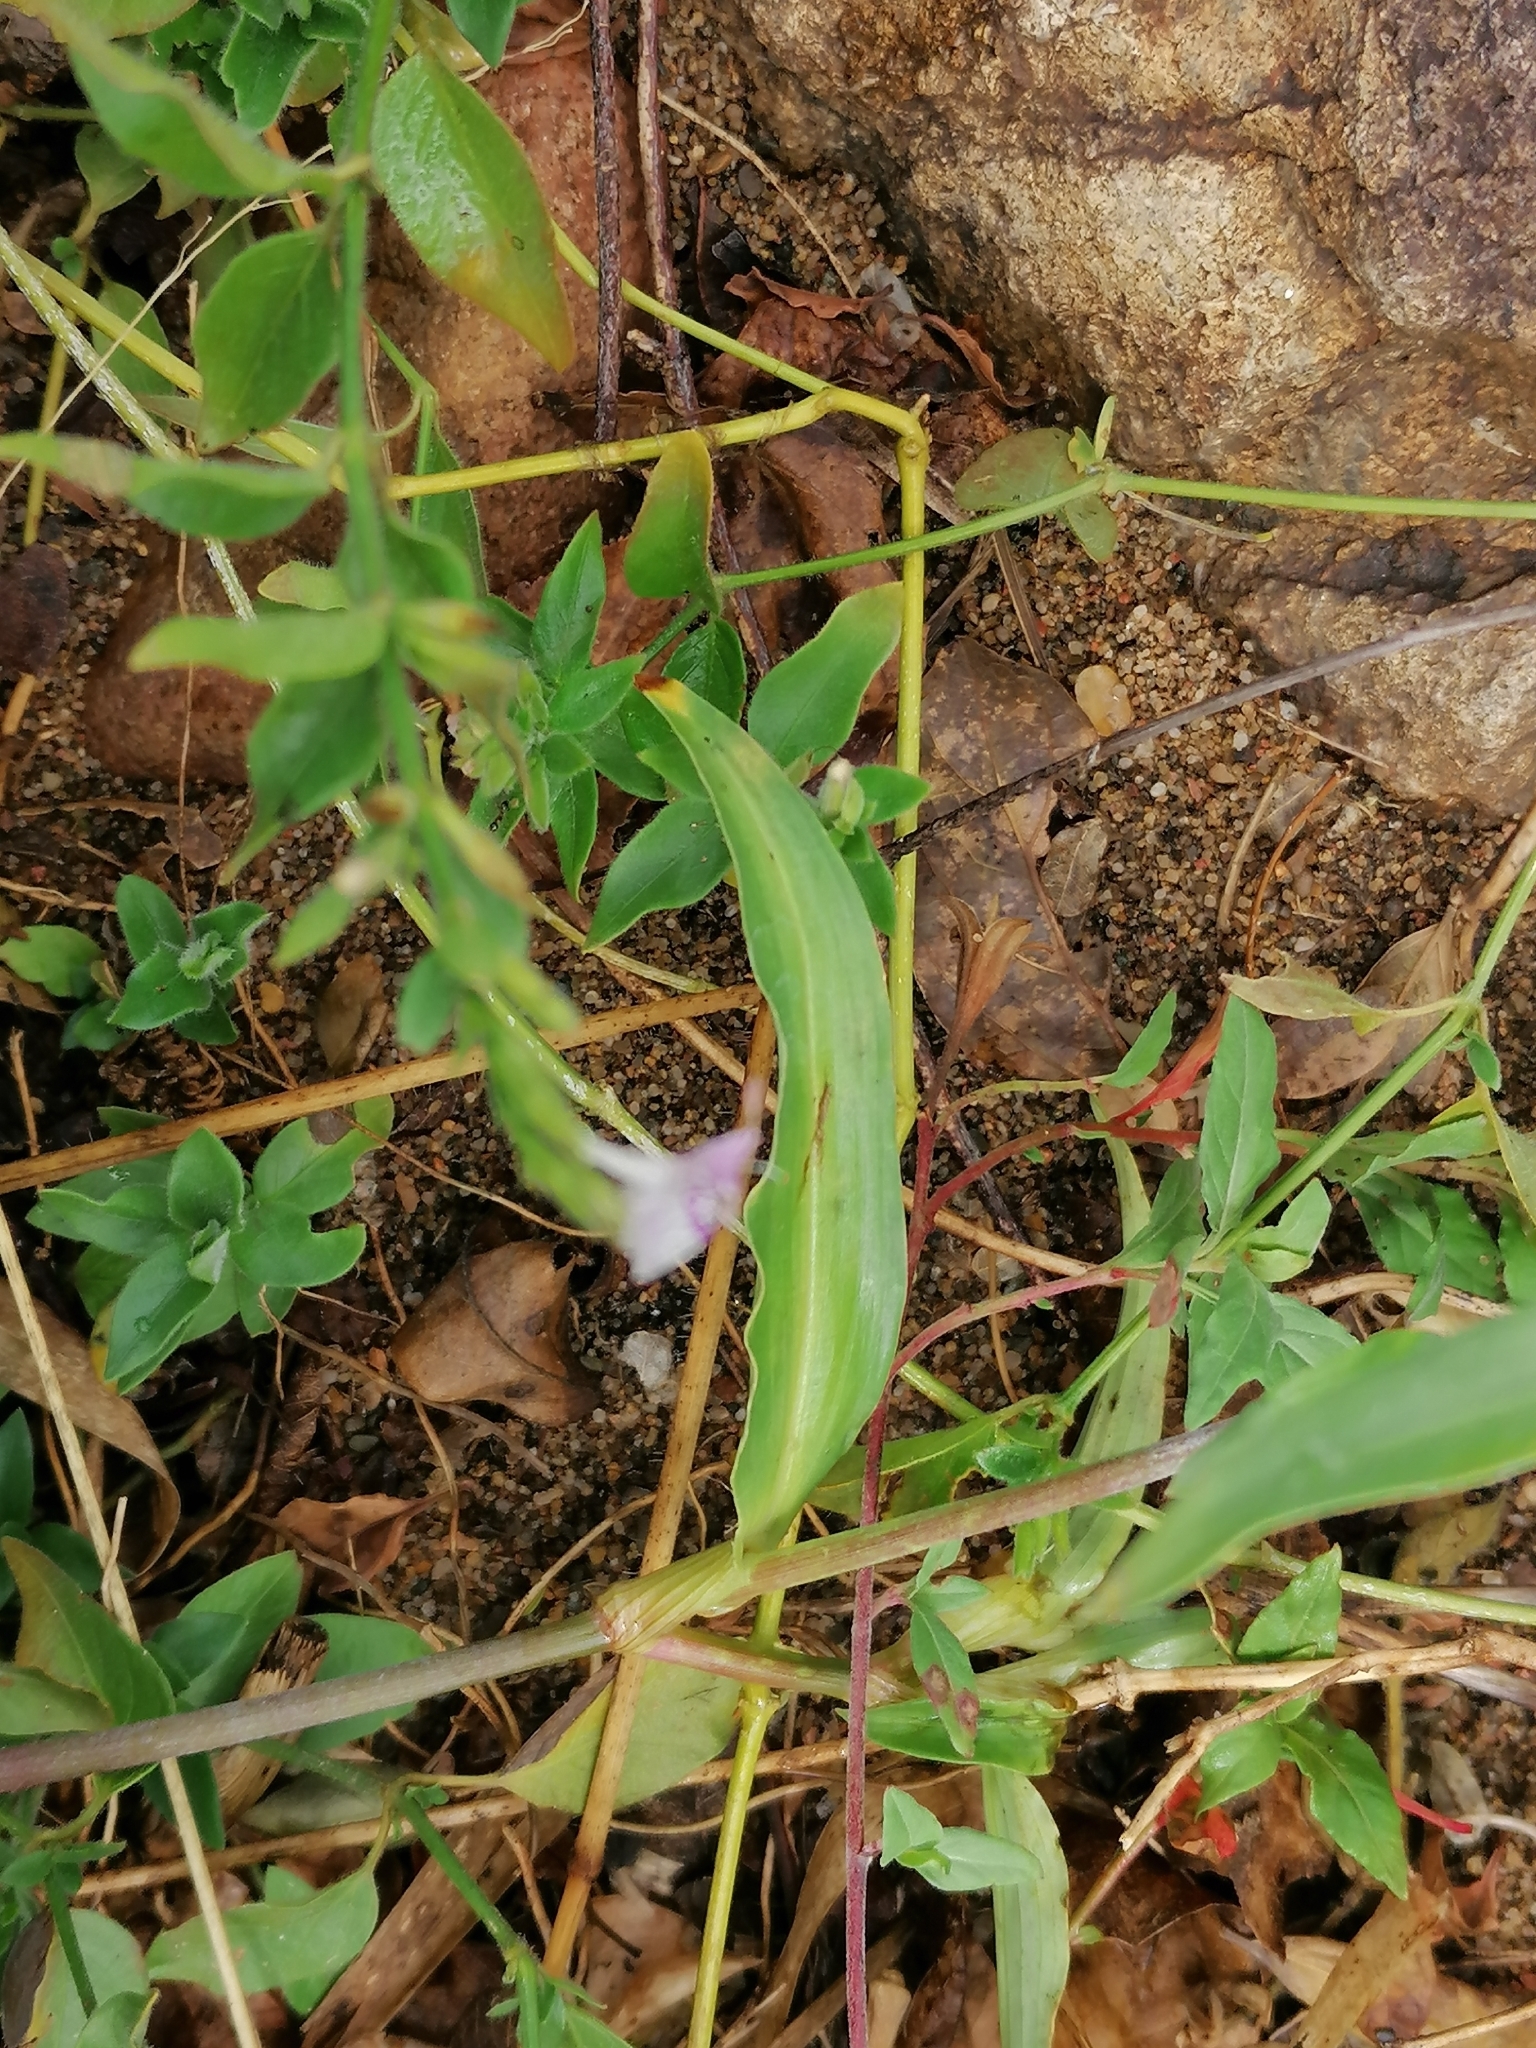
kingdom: Plantae
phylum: Tracheophyta
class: Magnoliopsida
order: Lamiales
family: Acanthaceae
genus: Hypoestes
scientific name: Hypoestes forskaolii
